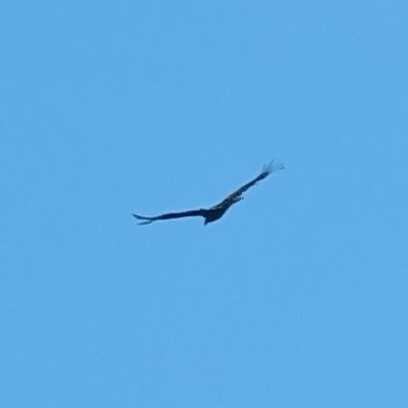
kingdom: Animalia
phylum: Chordata
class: Aves
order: Accipitriformes
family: Cathartidae
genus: Cathartes
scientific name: Cathartes aura
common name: Turkey vulture
